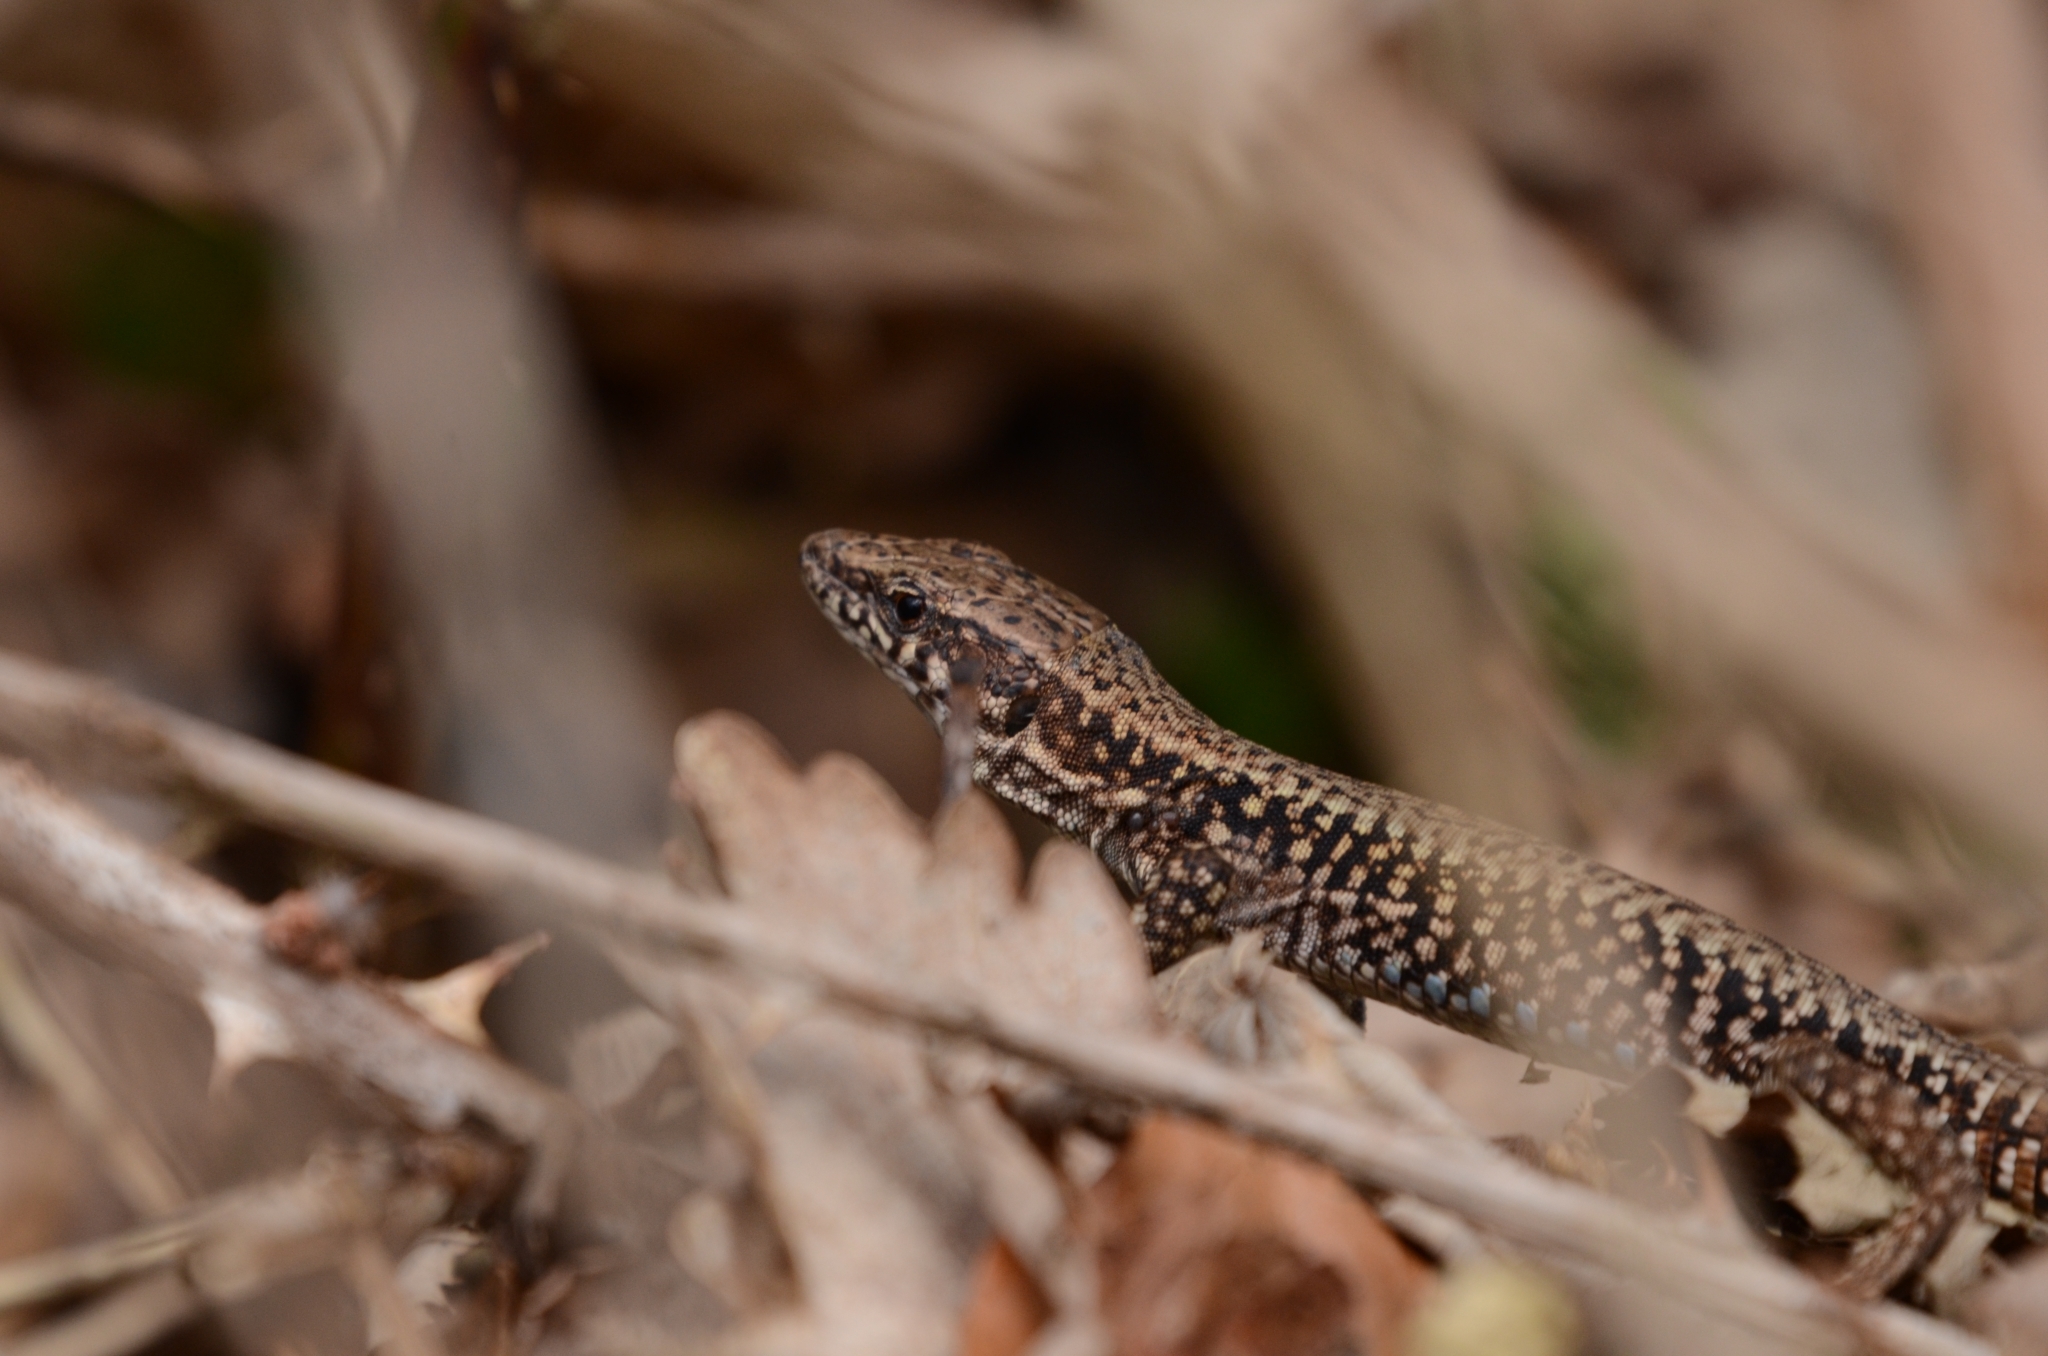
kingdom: Animalia
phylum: Chordata
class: Squamata
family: Lacertidae
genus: Podarcis
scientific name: Podarcis muralis
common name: Common wall lizard
